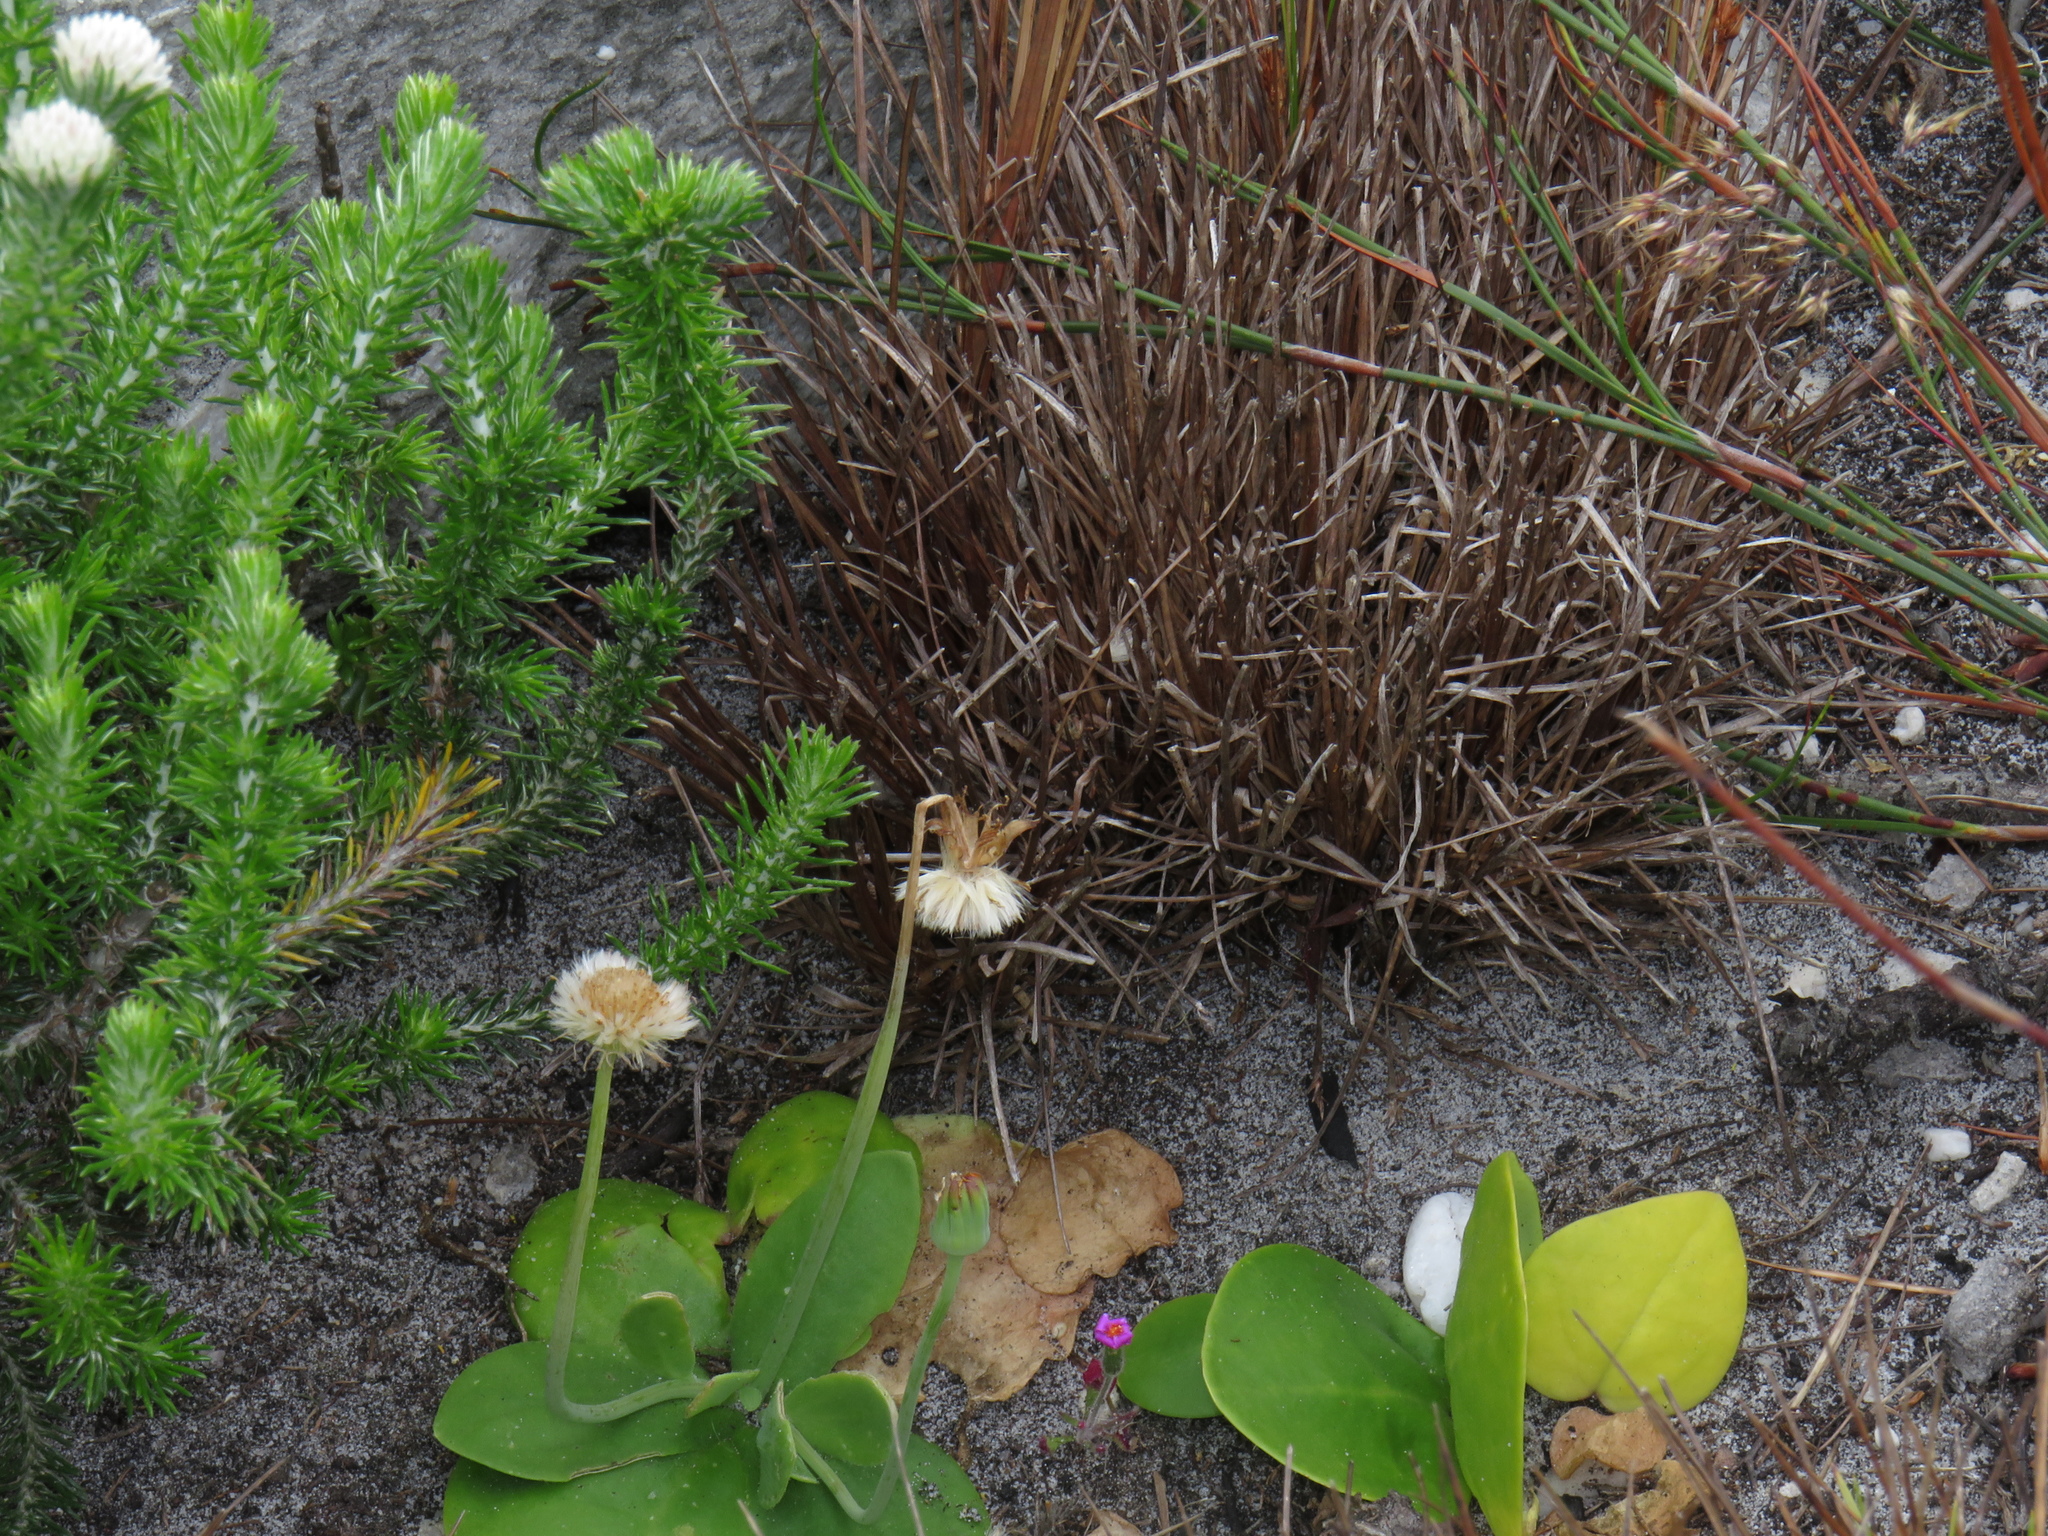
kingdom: Plantae
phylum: Tracheophyta
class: Magnoliopsida
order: Asterales
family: Asteraceae
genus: Othonna
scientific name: Othonna bulbosa
